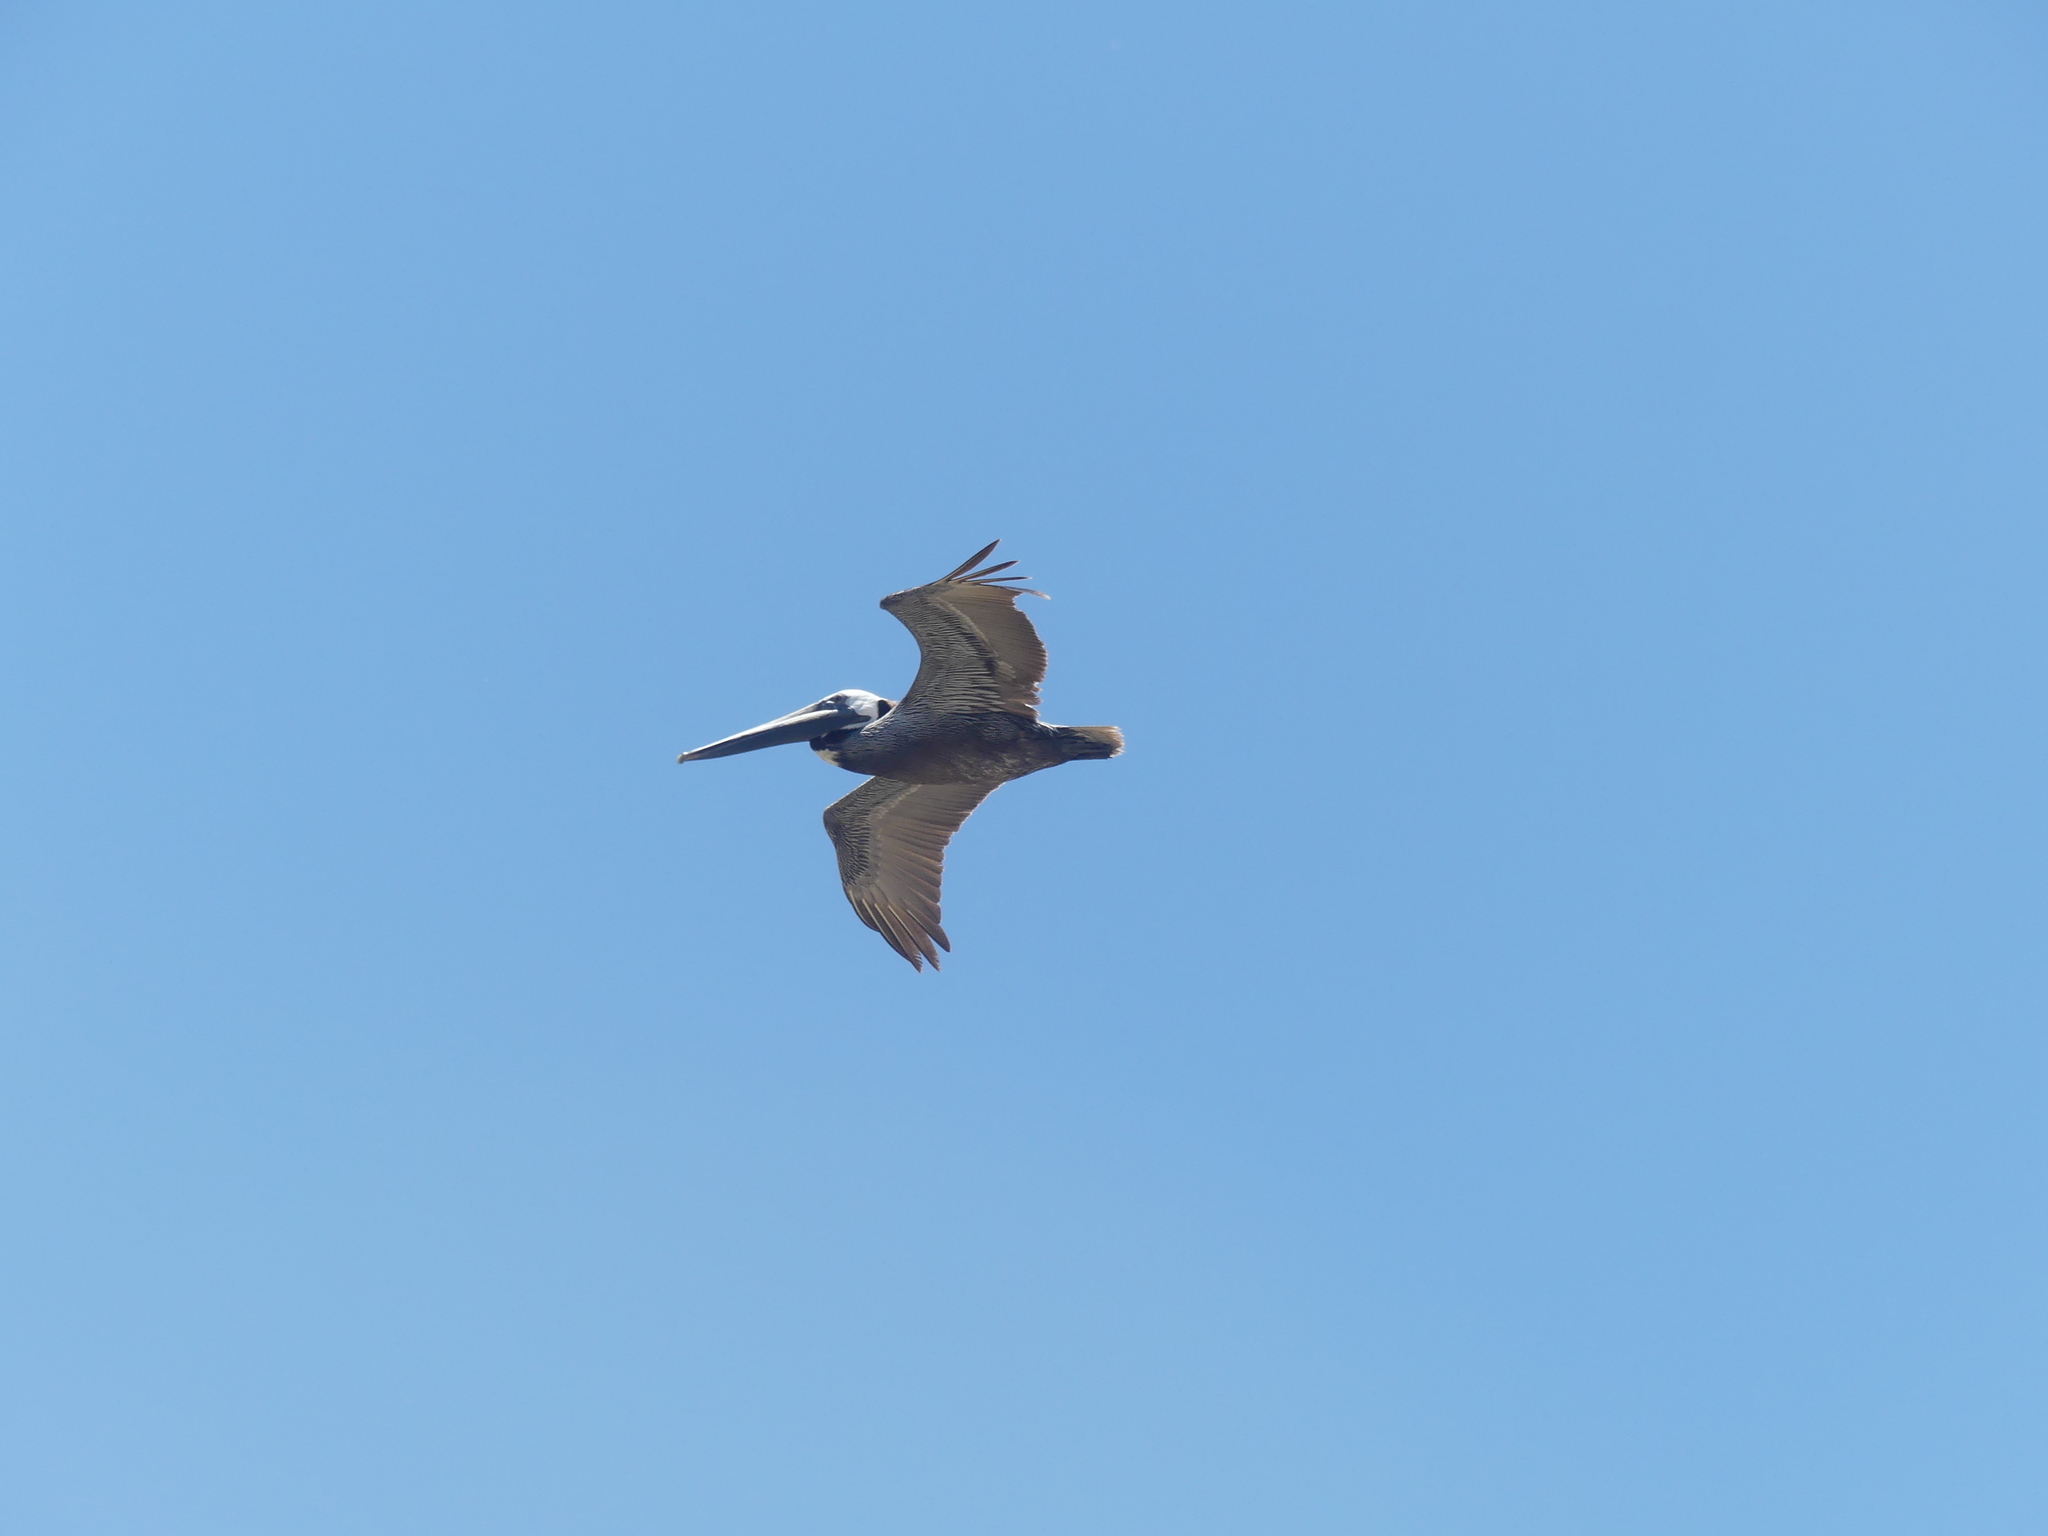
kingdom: Animalia
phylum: Chordata
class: Aves
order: Pelecaniformes
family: Pelecanidae
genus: Pelecanus
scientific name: Pelecanus occidentalis
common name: Brown pelican
